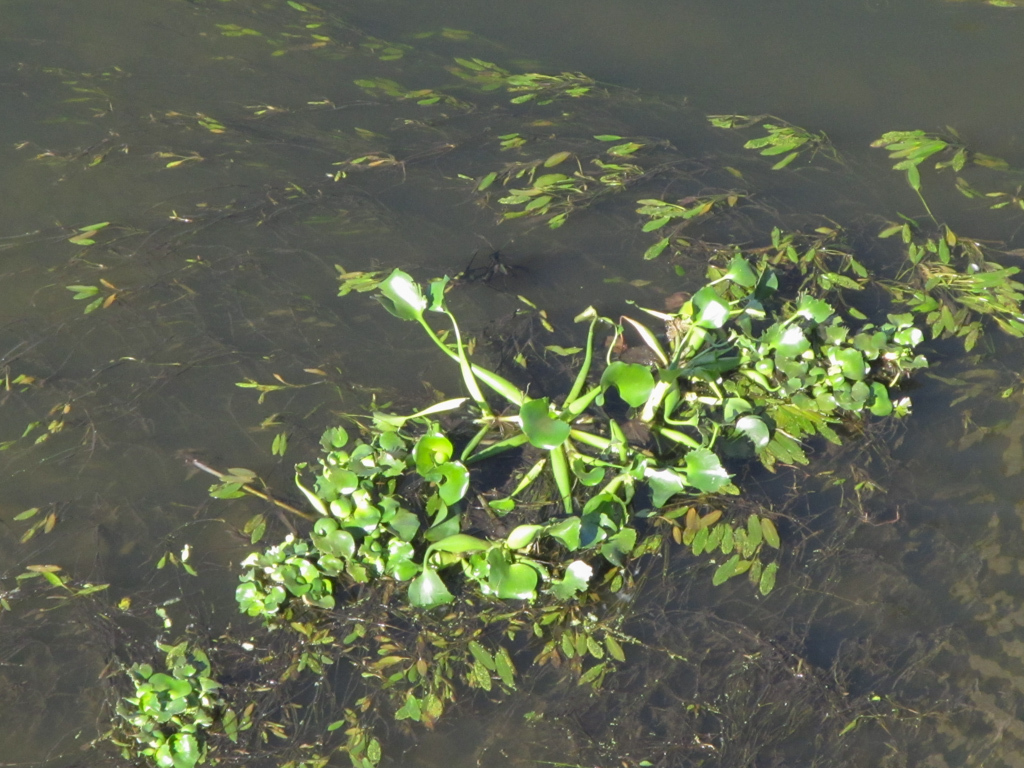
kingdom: Plantae
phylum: Tracheophyta
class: Liliopsida
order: Commelinales
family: Pontederiaceae
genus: Pontederia
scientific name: Pontederia crassipes
